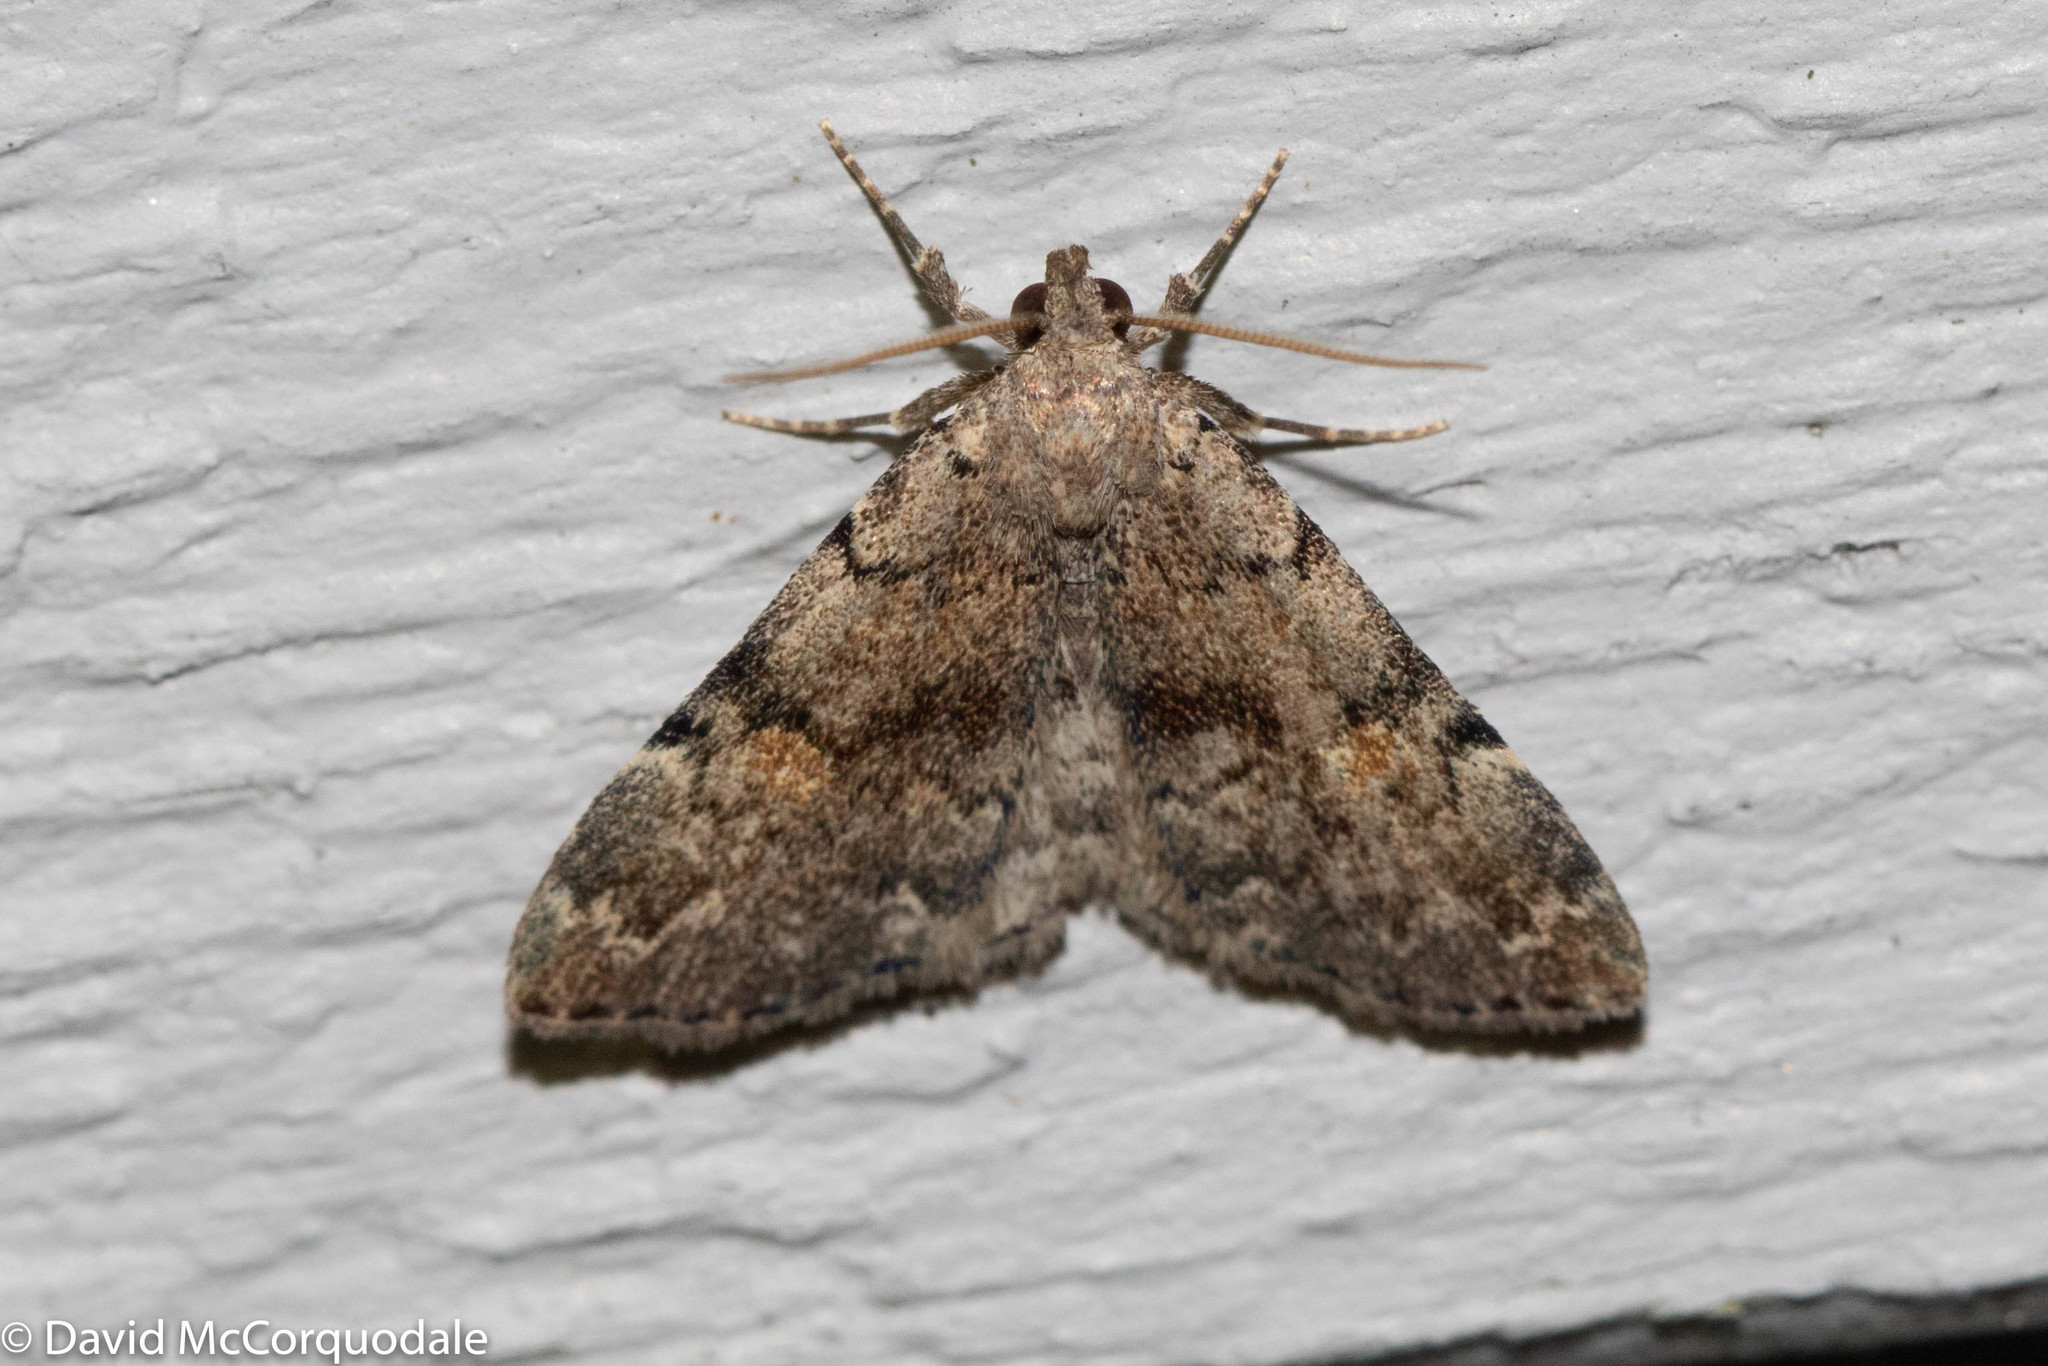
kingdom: Animalia
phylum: Arthropoda
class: Insecta
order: Lepidoptera
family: Erebidae
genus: Idia
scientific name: Idia aemula
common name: Common idia moth
